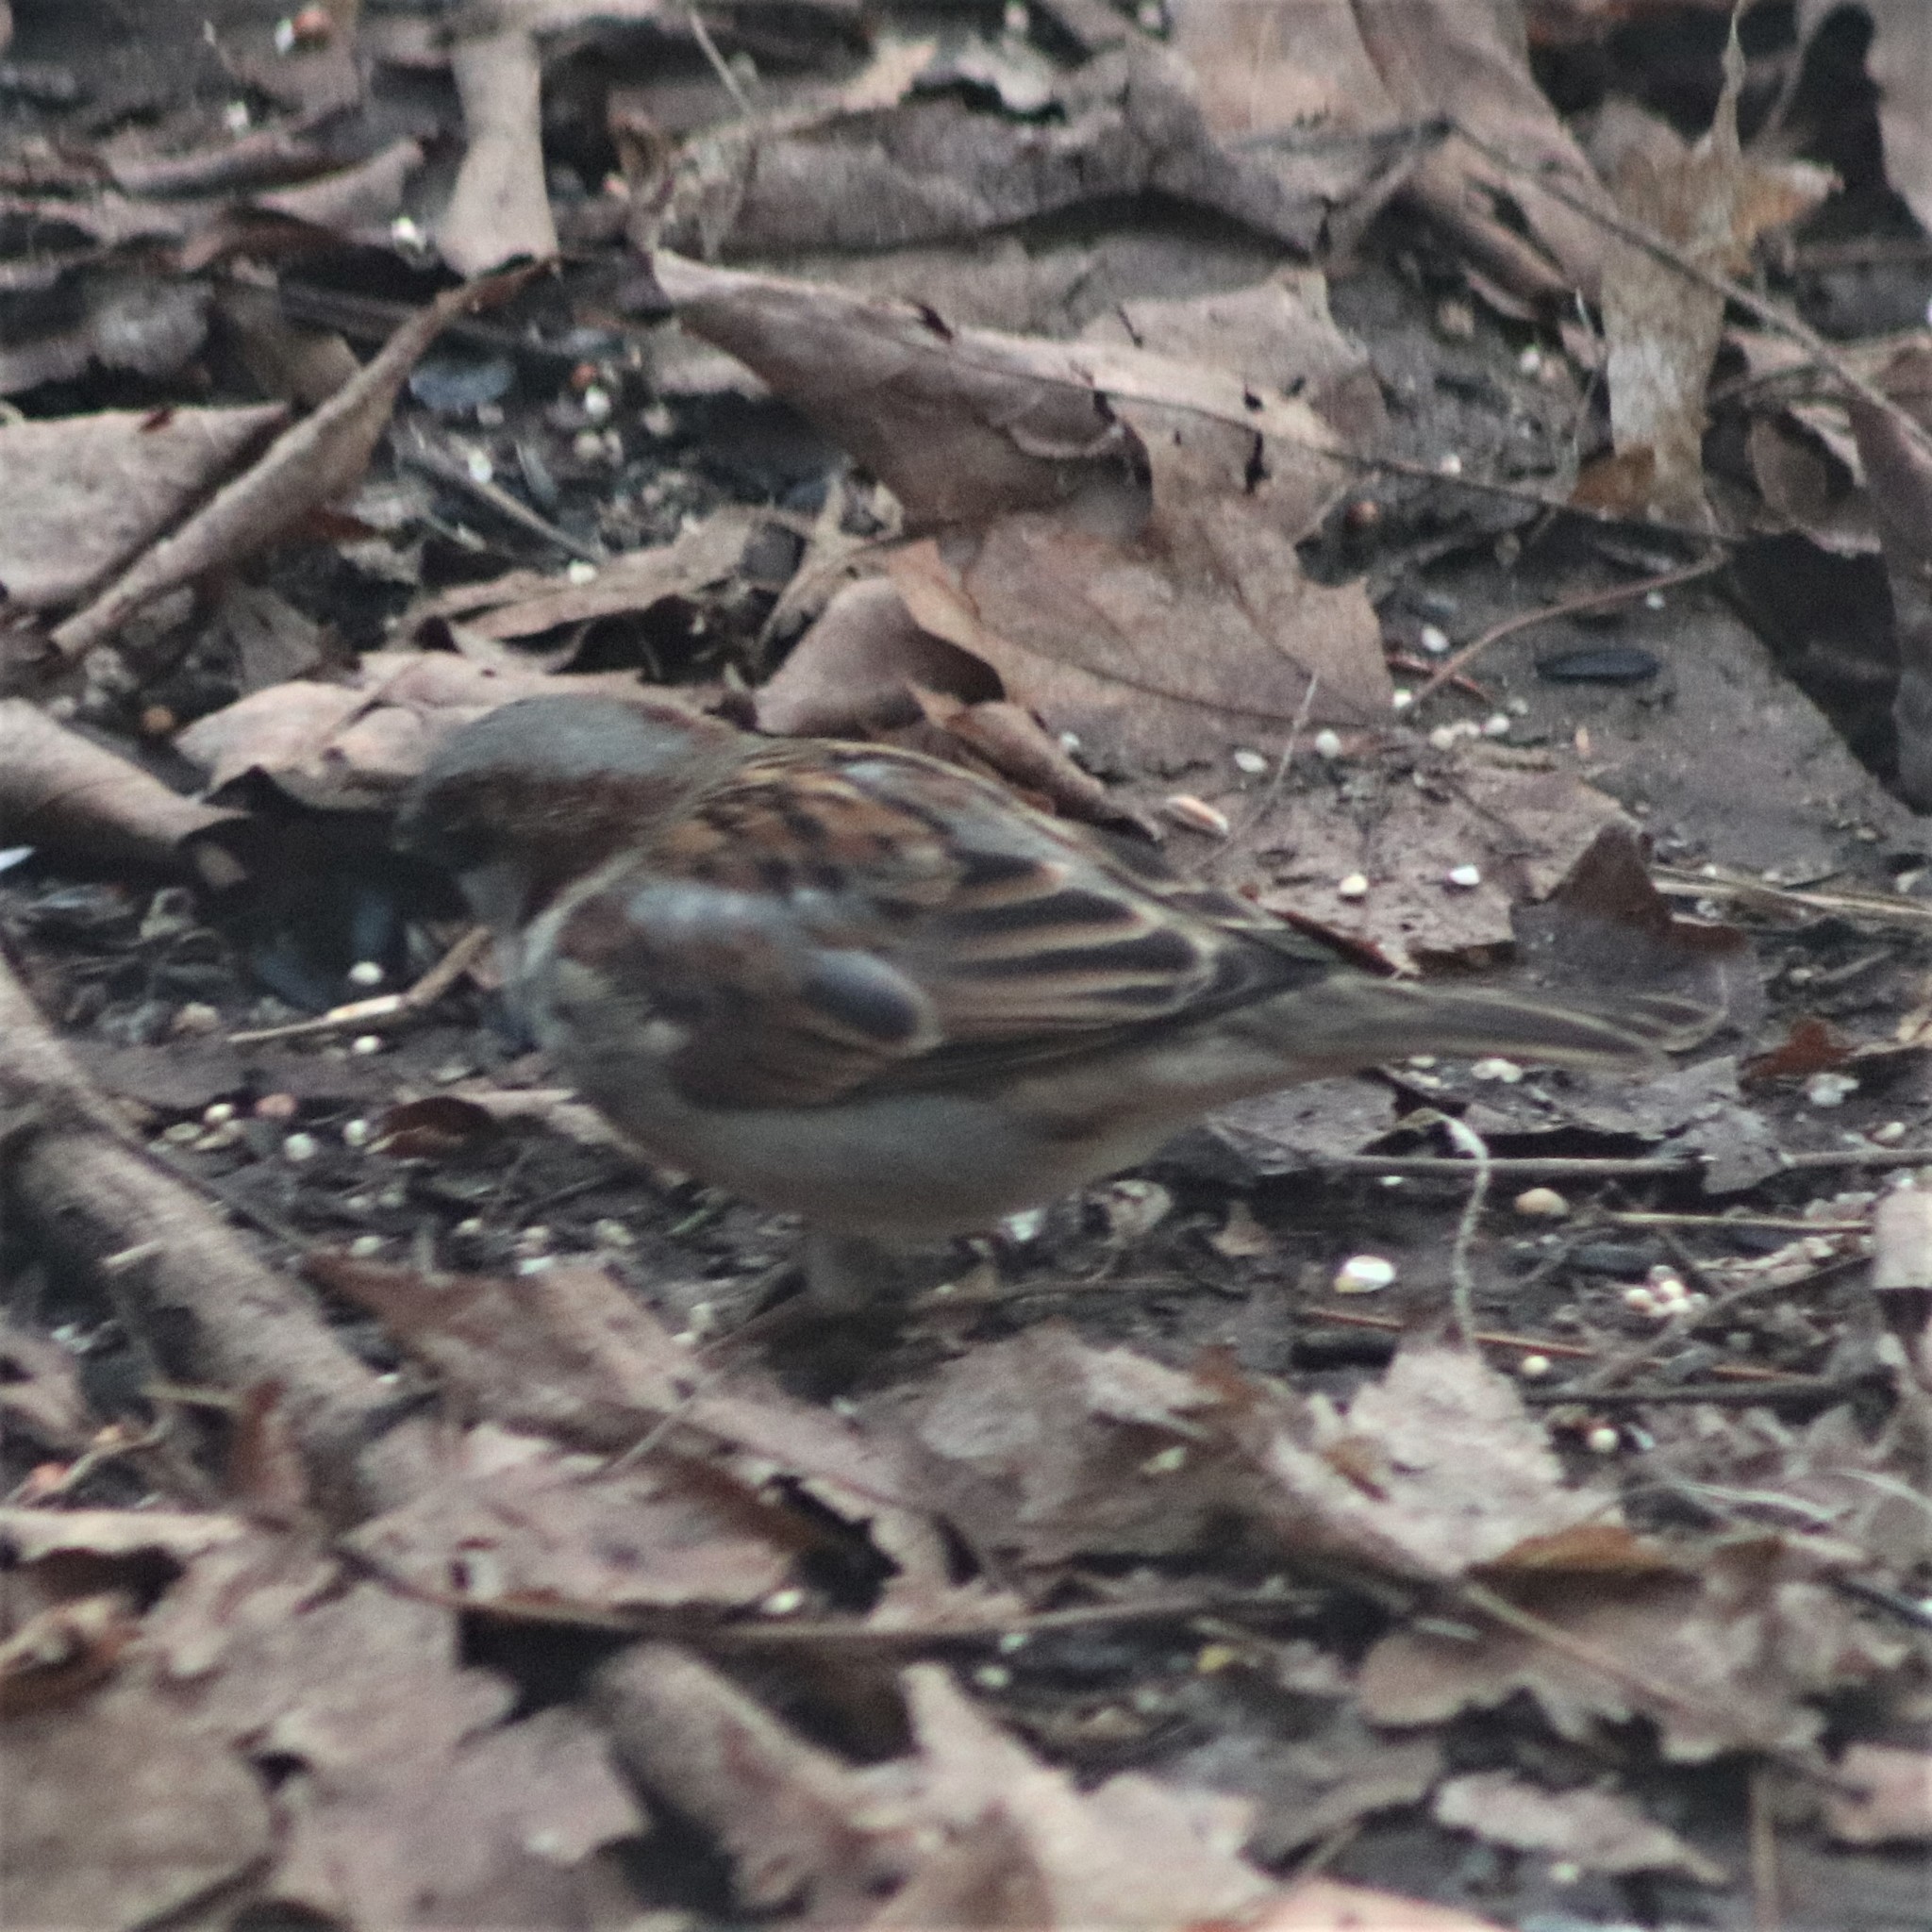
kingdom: Animalia
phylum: Chordata
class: Aves
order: Passeriformes
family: Passeridae
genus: Passer
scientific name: Passer domesticus
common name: House sparrow
